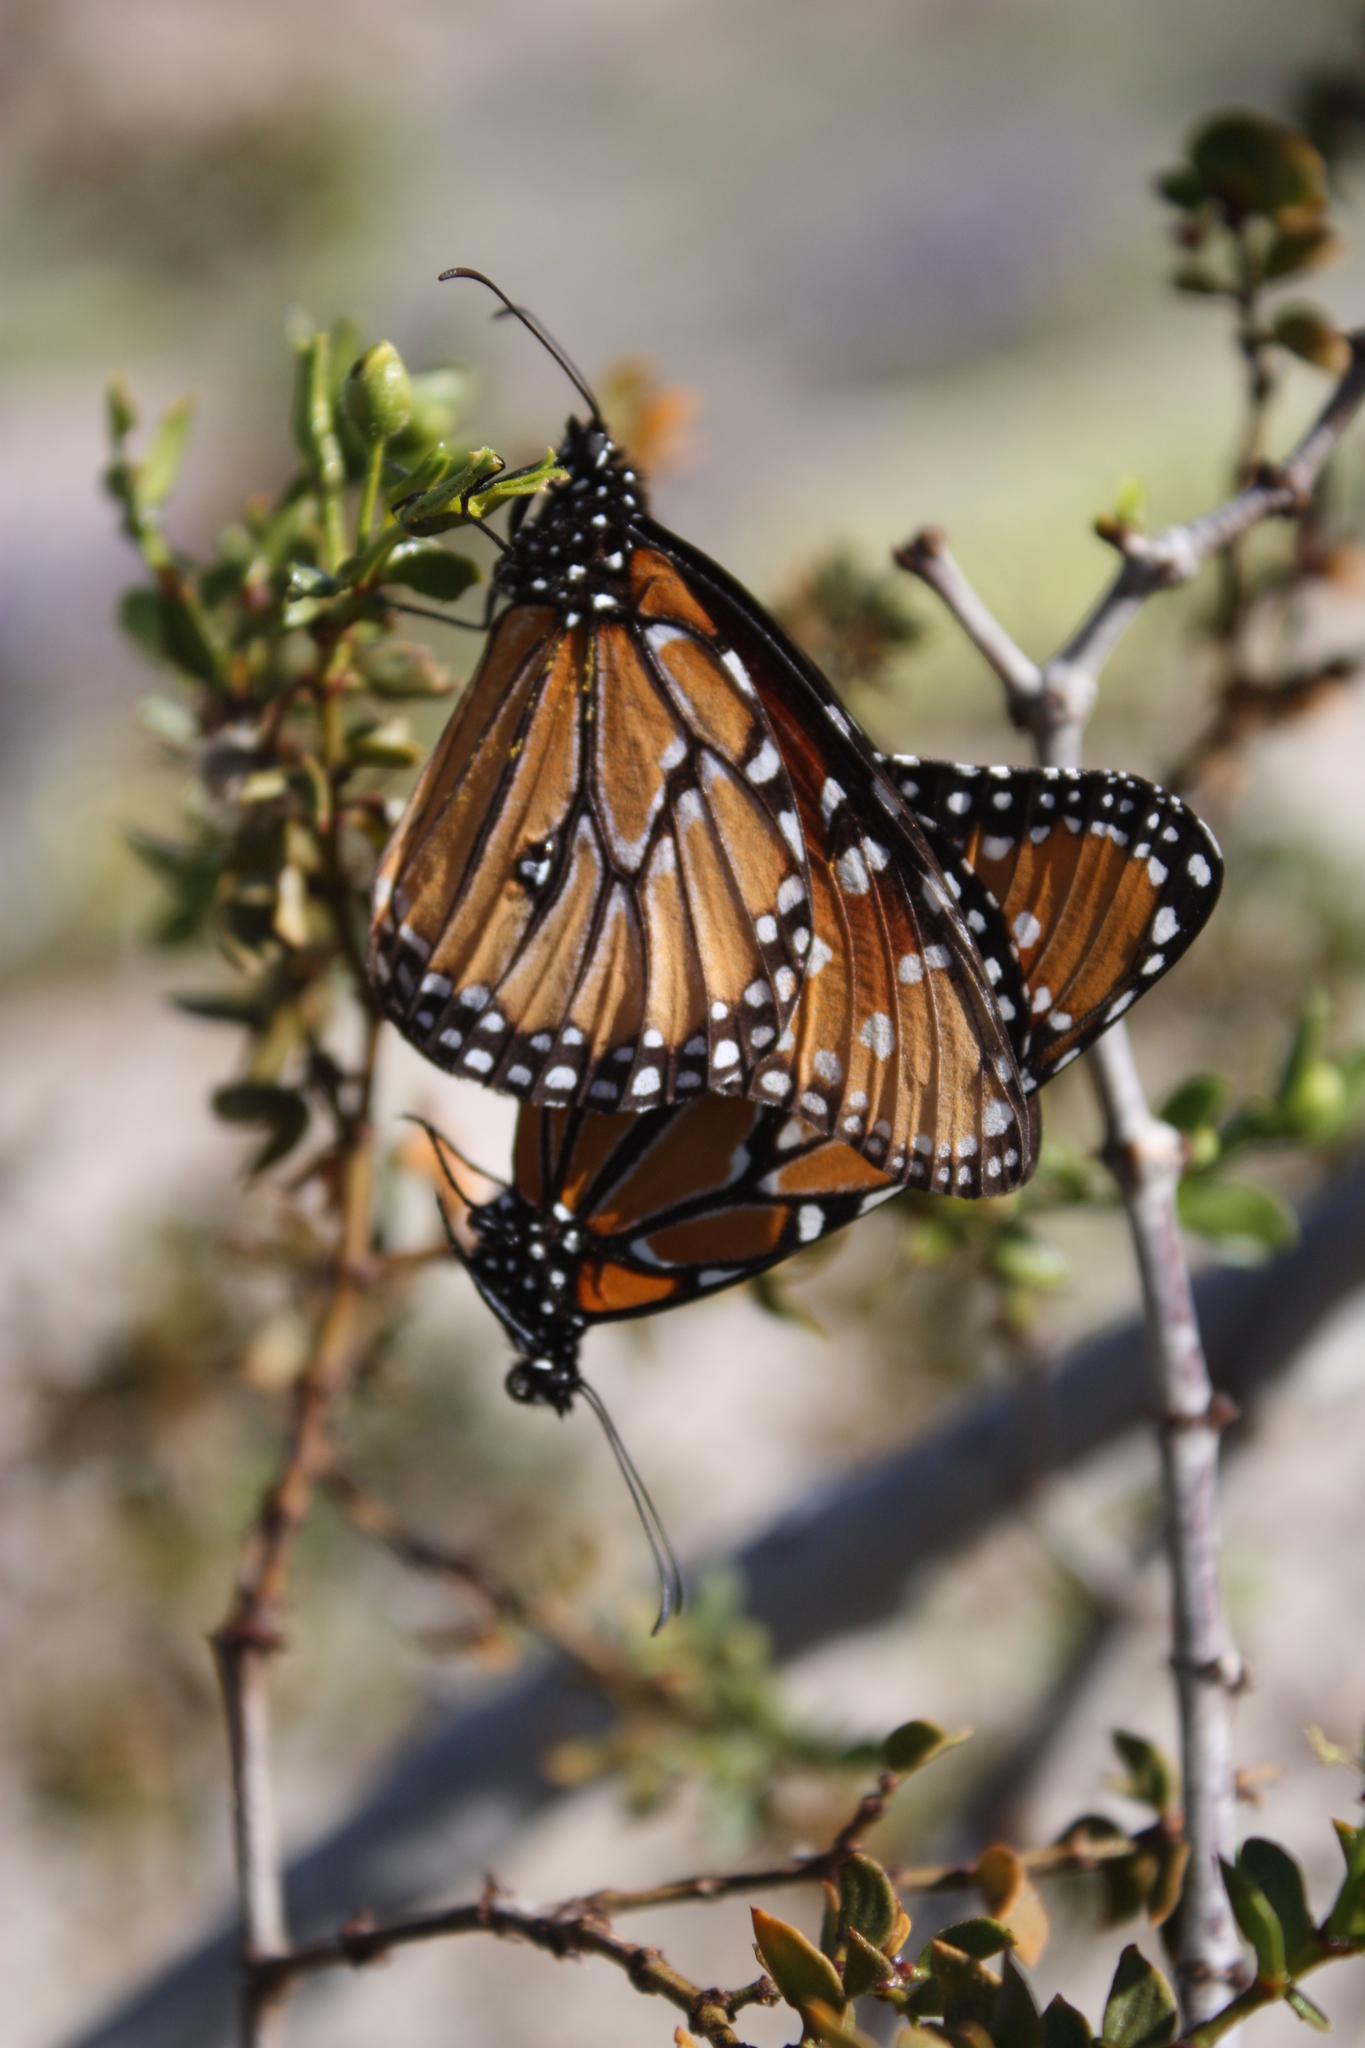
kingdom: Animalia
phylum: Arthropoda
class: Insecta
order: Lepidoptera
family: Nymphalidae
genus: Danaus
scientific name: Danaus gilippus
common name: Queen
